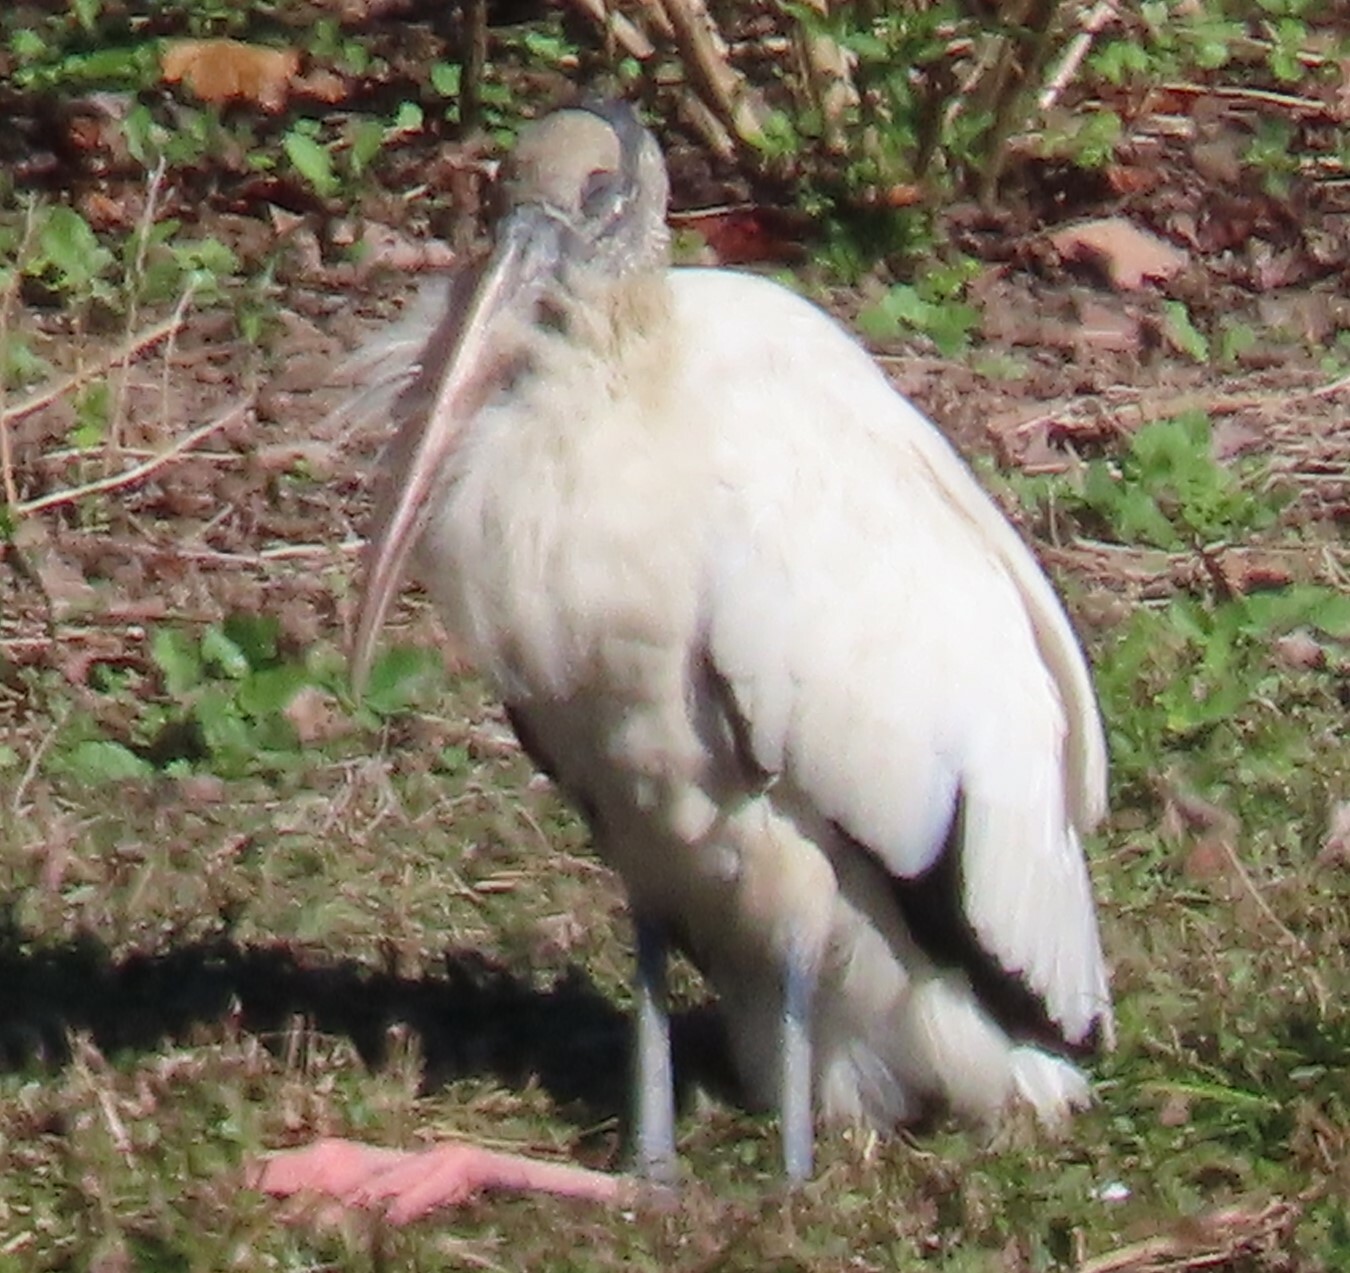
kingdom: Animalia
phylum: Chordata
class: Aves
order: Ciconiiformes
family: Ciconiidae
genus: Mycteria
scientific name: Mycteria americana
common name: Wood stork
